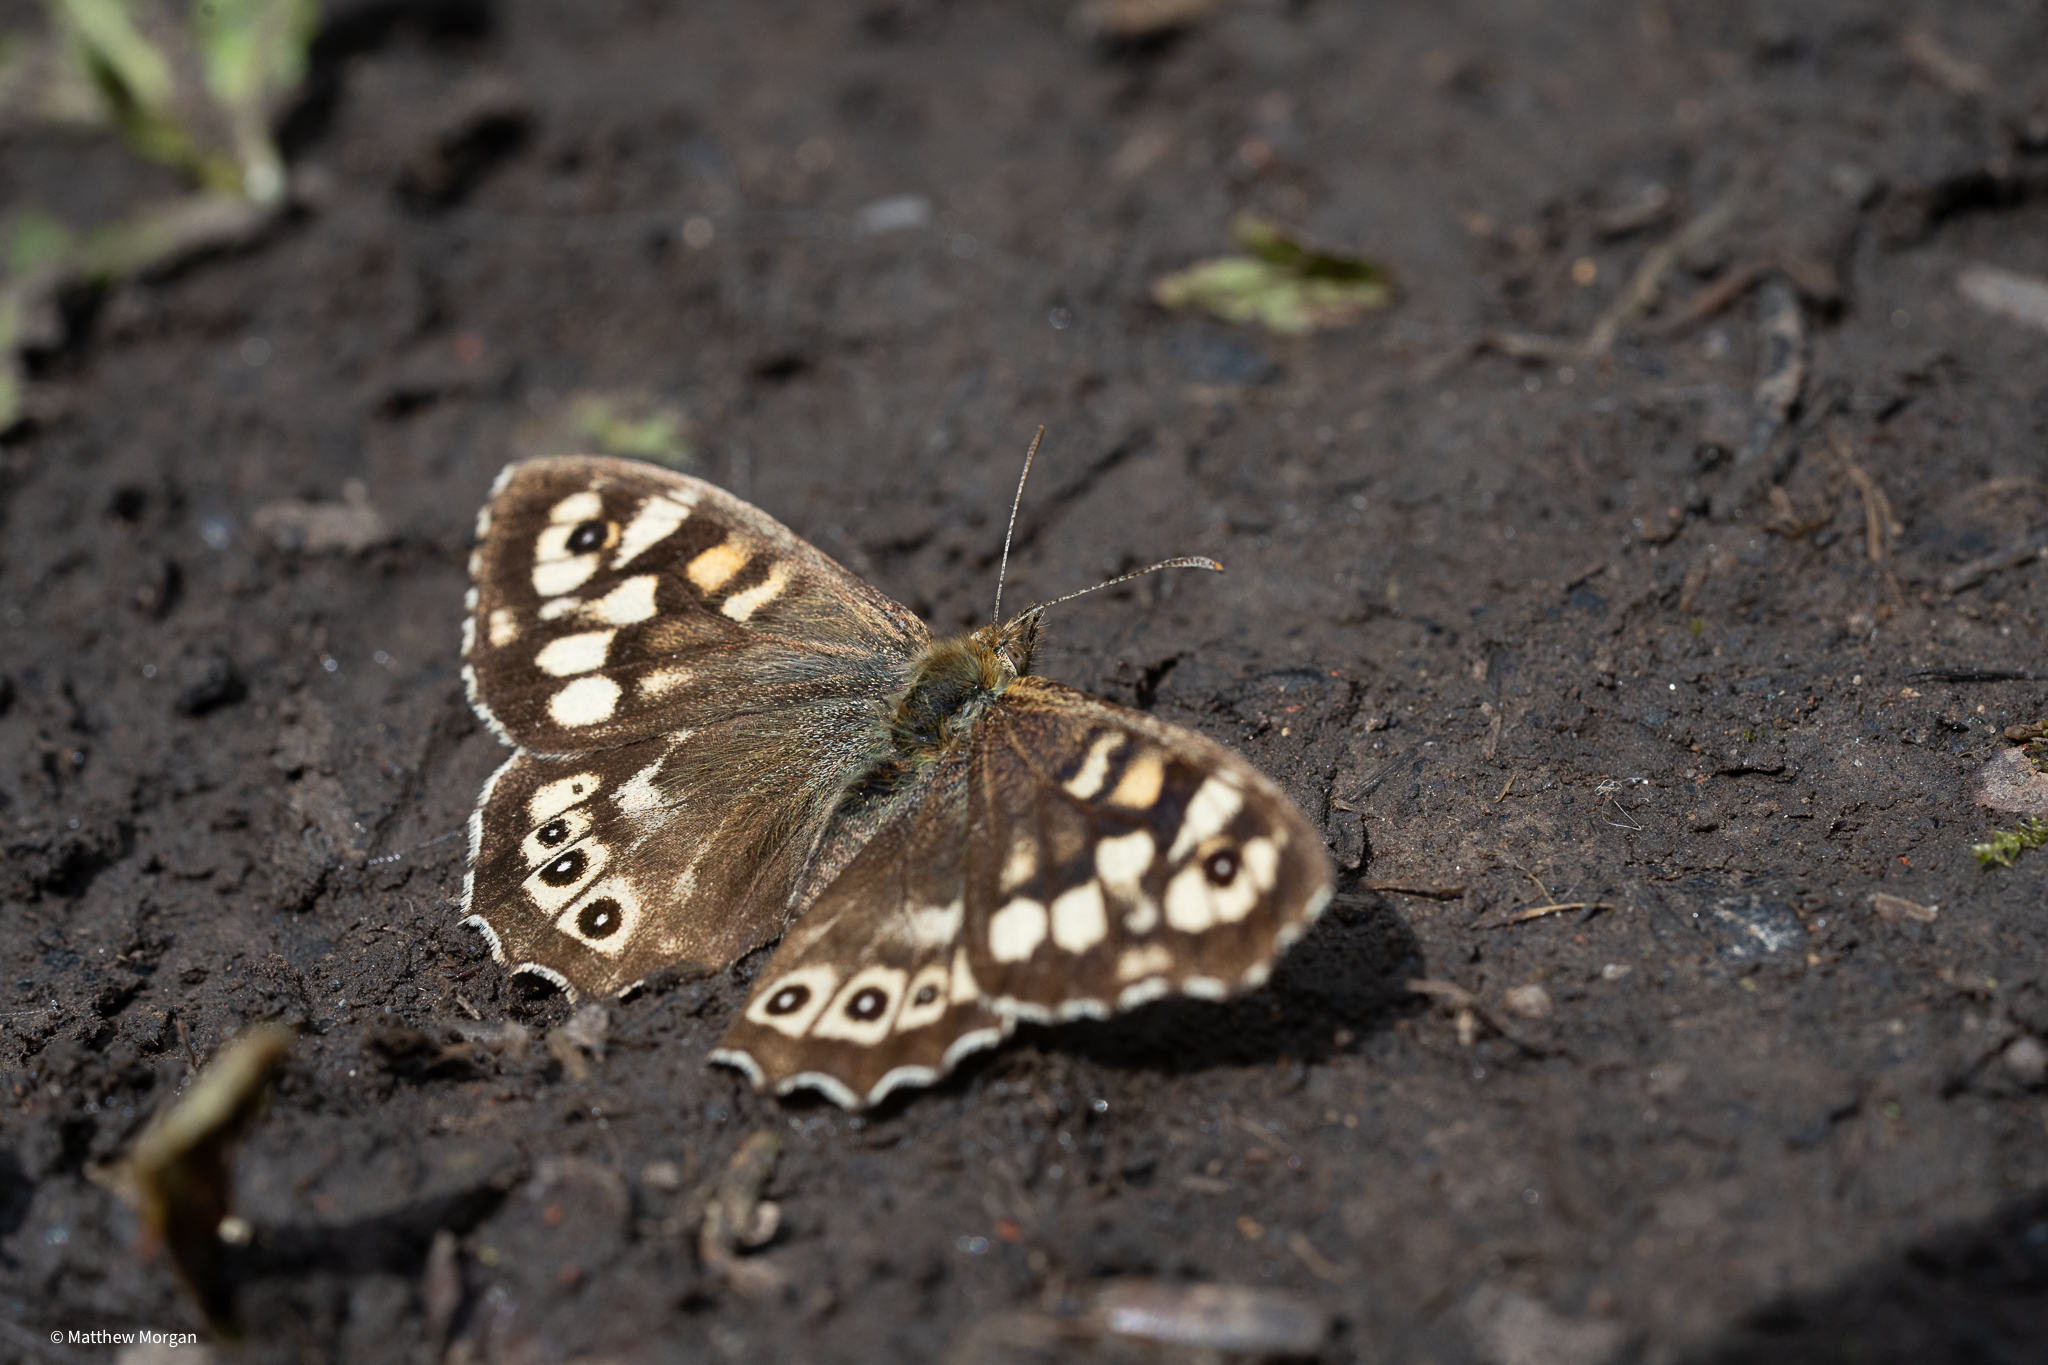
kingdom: Animalia
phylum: Arthropoda
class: Insecta
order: Lepidoptera
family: Nymphalidae
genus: Pararge
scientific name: Pararge aegeria
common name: Speckled wood
